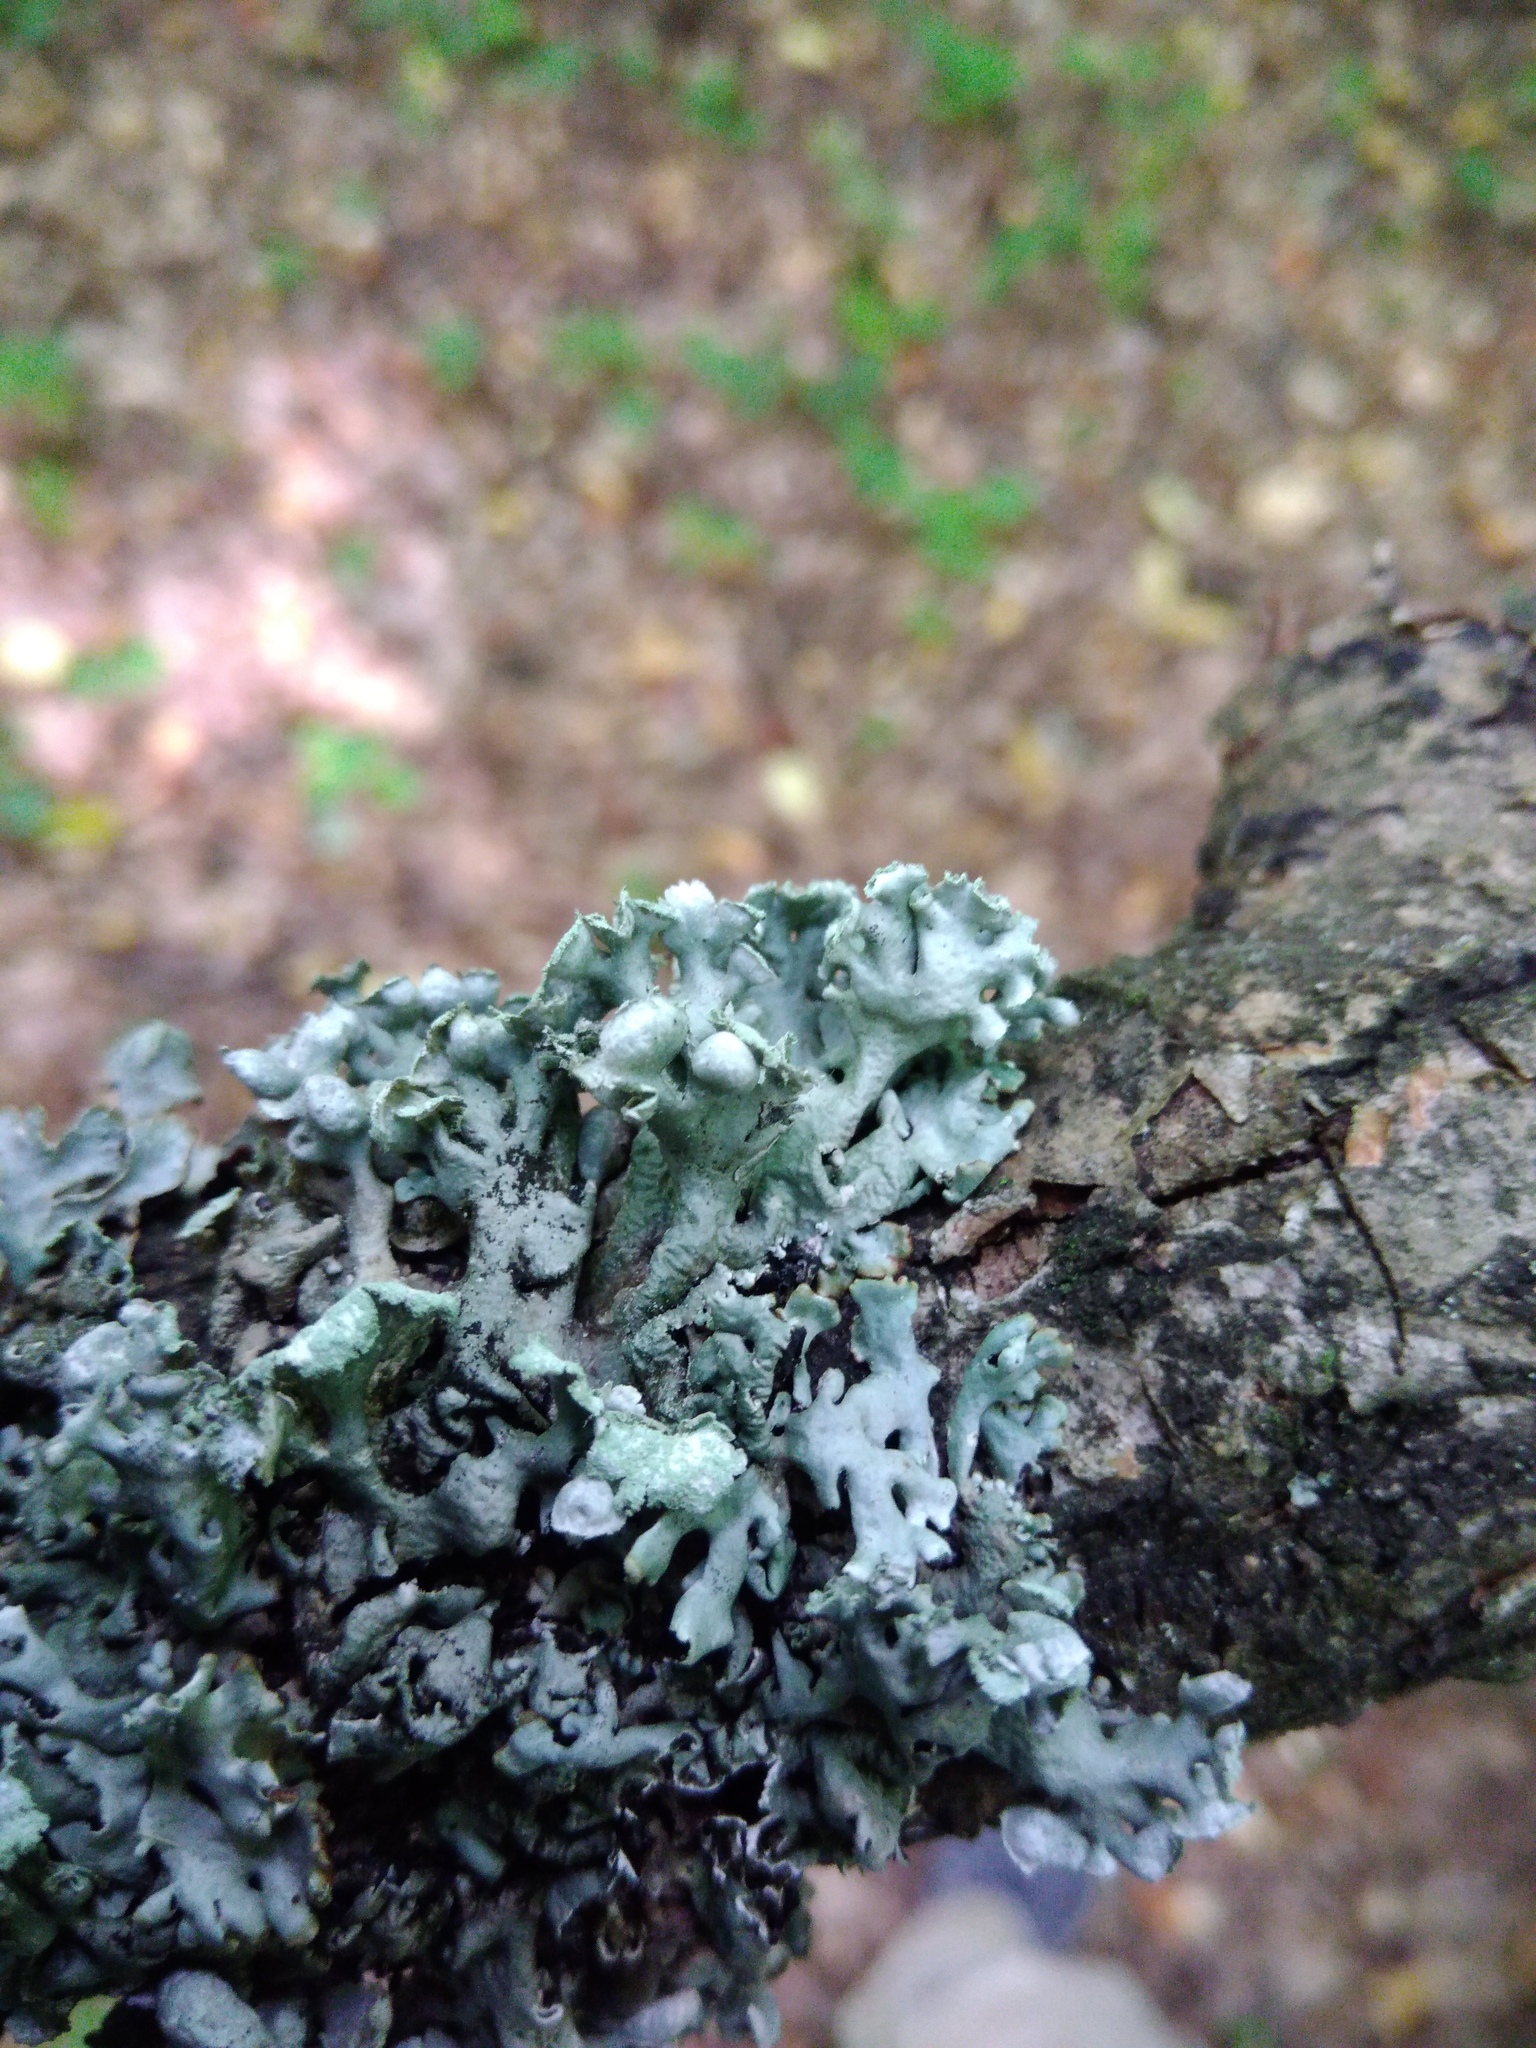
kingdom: Fungi
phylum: Ascomycota
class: Lecanoromycetes
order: Lecanorales
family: Parmeliaceae
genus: Hypogymnia
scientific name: Hypogymnia physodes
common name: Dark crottle
